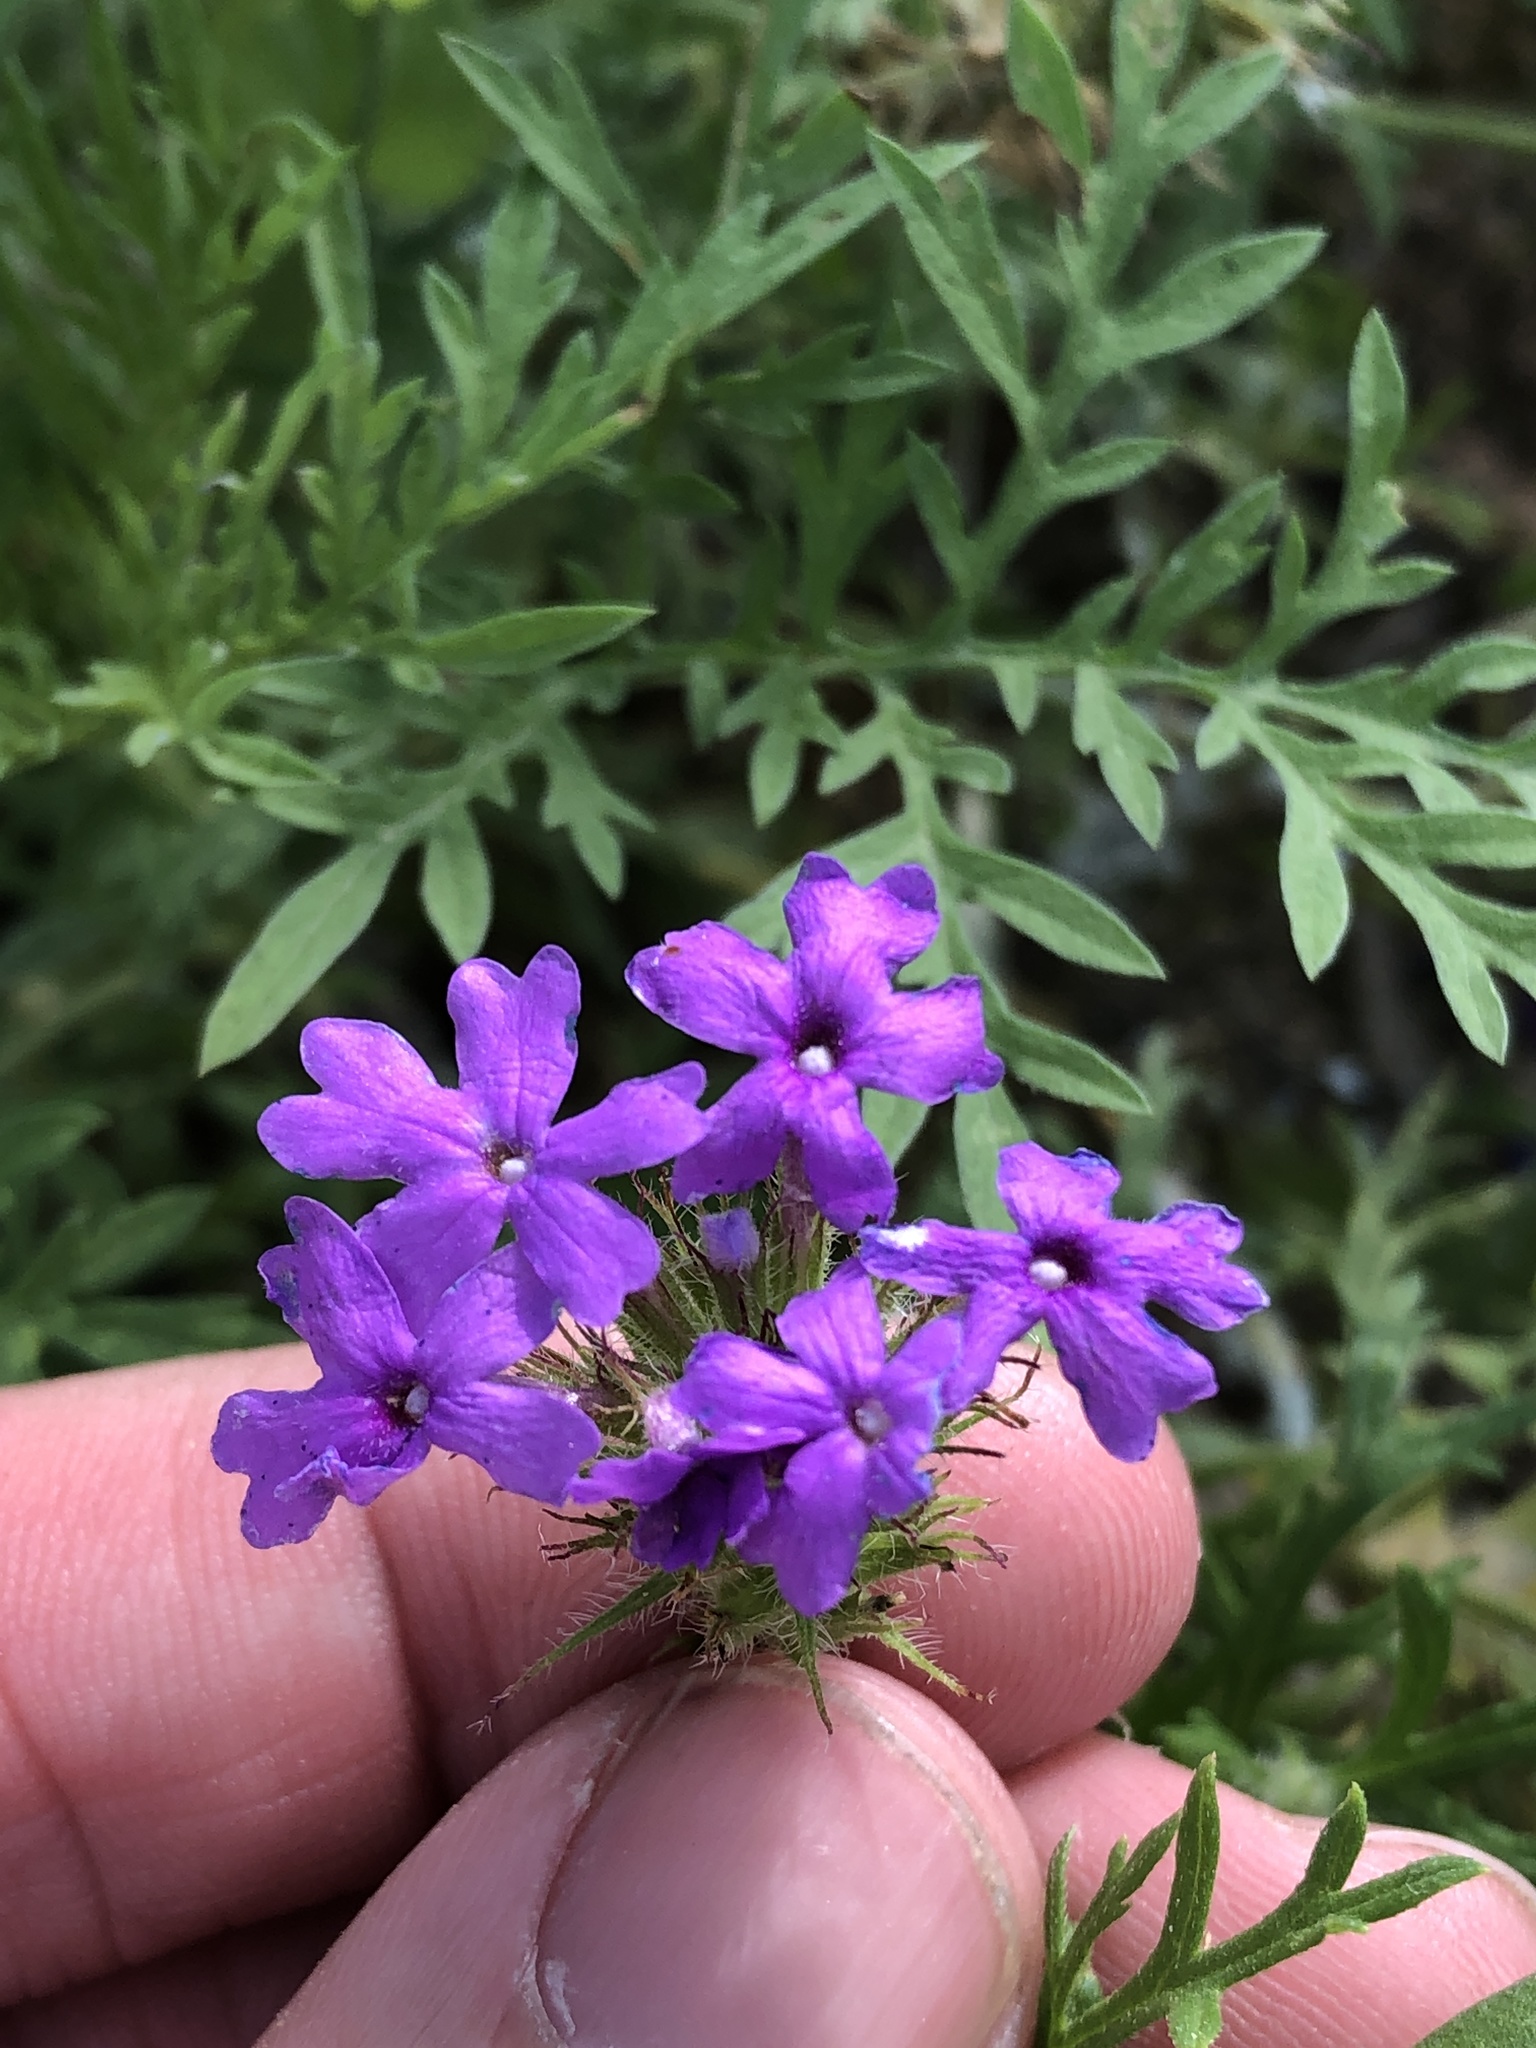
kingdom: Plantae
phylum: Tracheophyta
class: Magnoliopsida
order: Lamiales
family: Verbenaceae
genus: Verbena
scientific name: Verbena bipinnatifida
